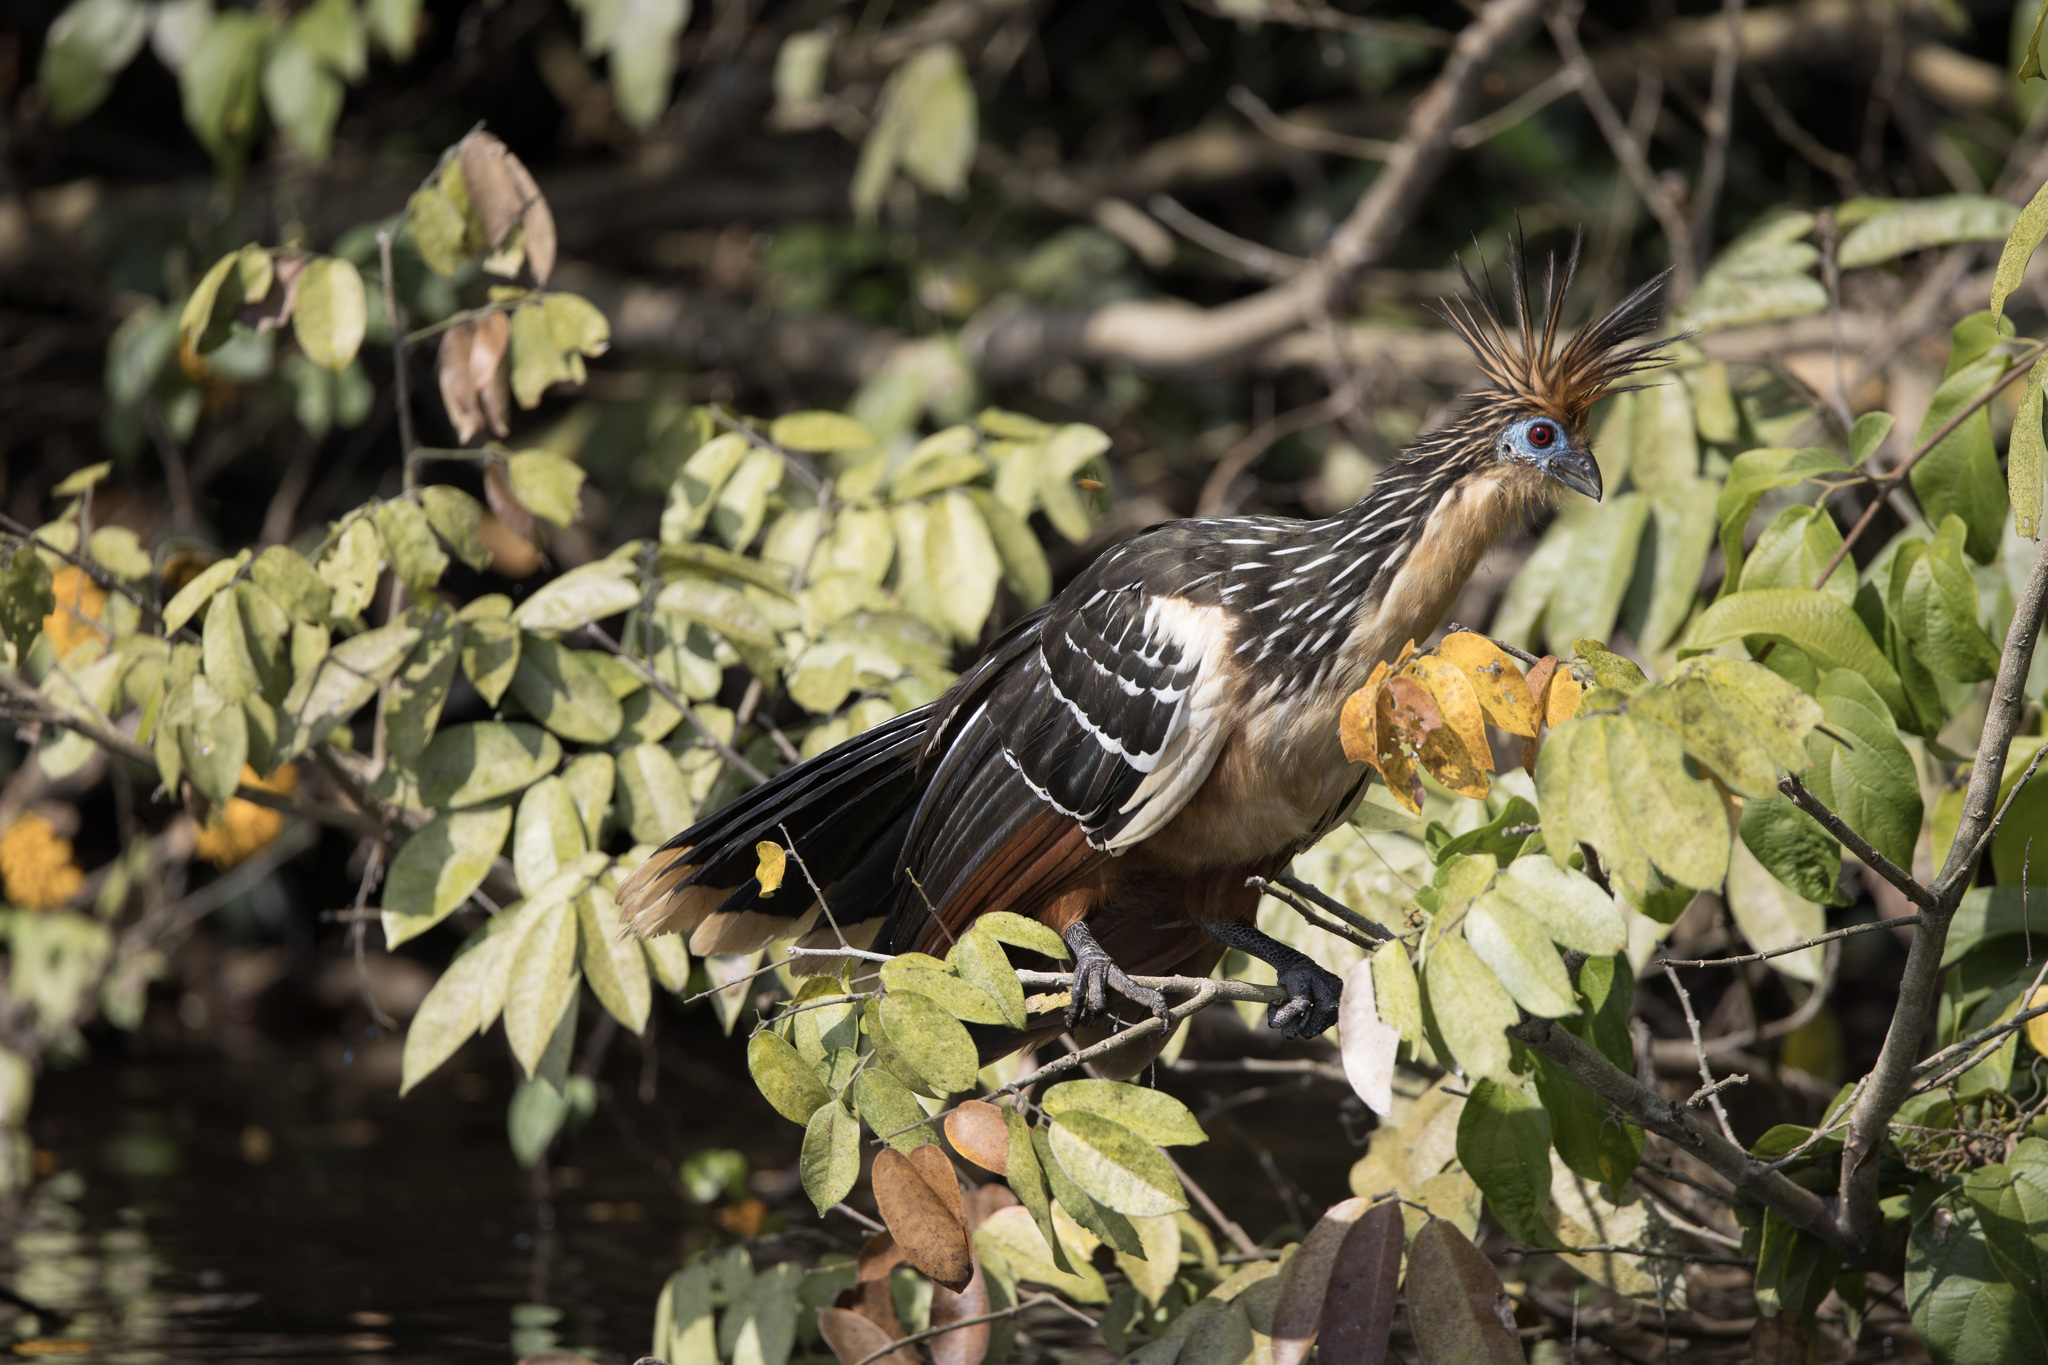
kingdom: Animalia
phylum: Chordata
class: Aves
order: Opisthocomiformes
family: Opisthocomidae
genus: Opisthocomus
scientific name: Opisthocomus hoazin
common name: Hoatzin
